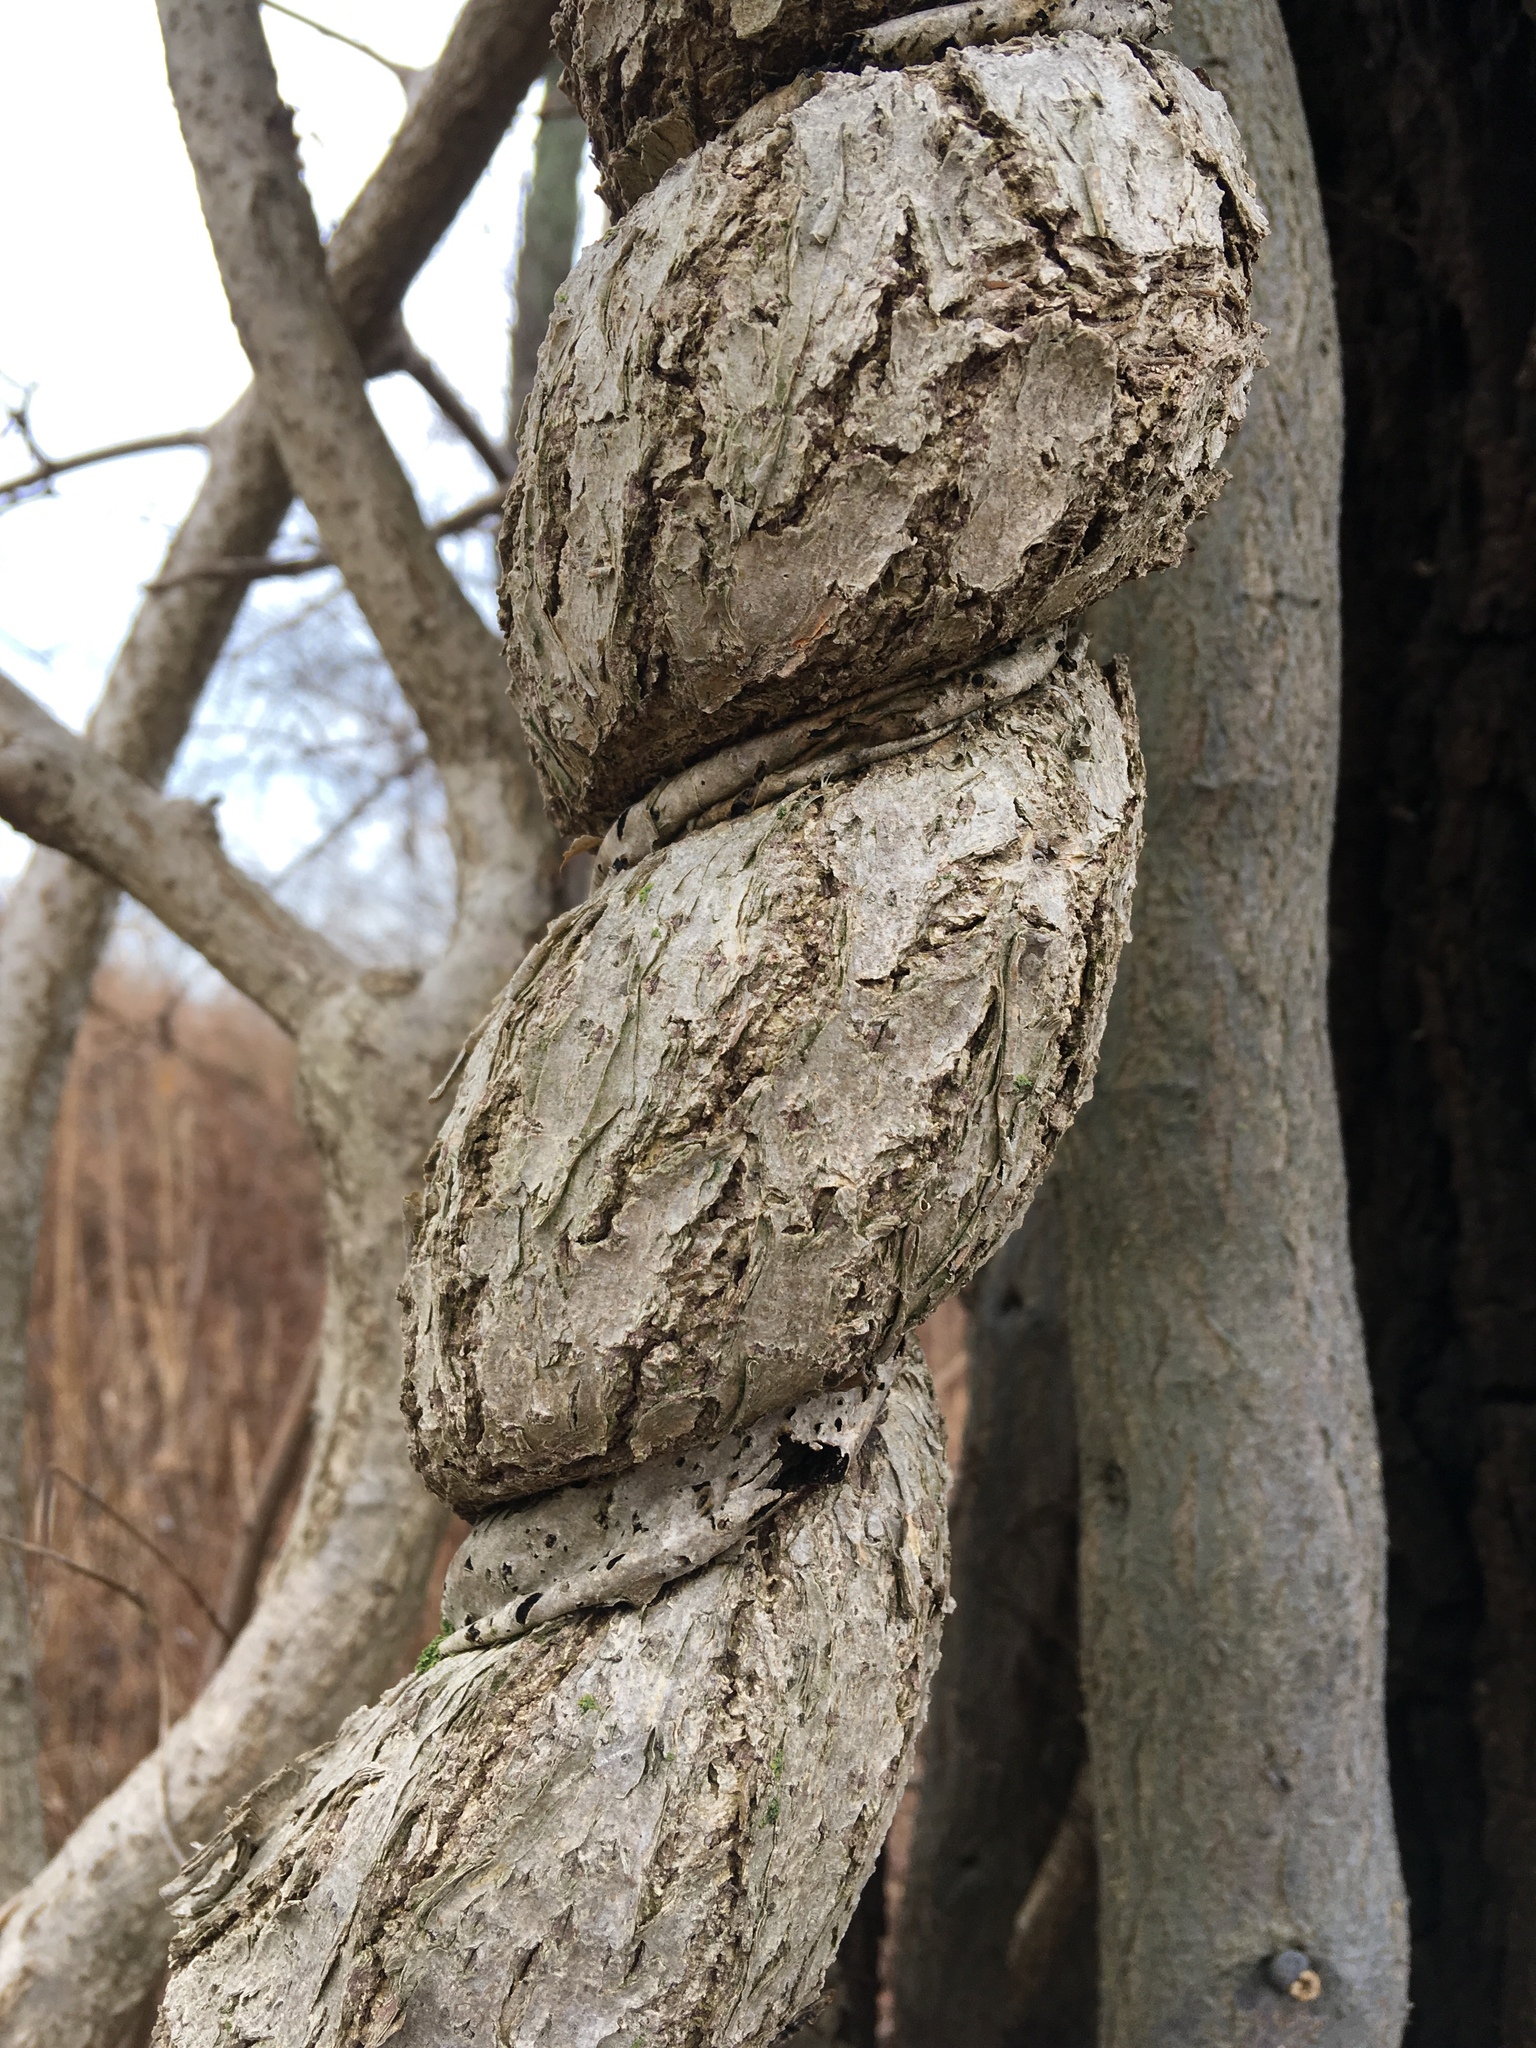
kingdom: Plantae
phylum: Tracheophyta
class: Magnoliopsida
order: Celastrales
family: Celastraceae
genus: Celastrus
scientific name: Celastrus orbiculatus
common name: Oriental bittersweet
